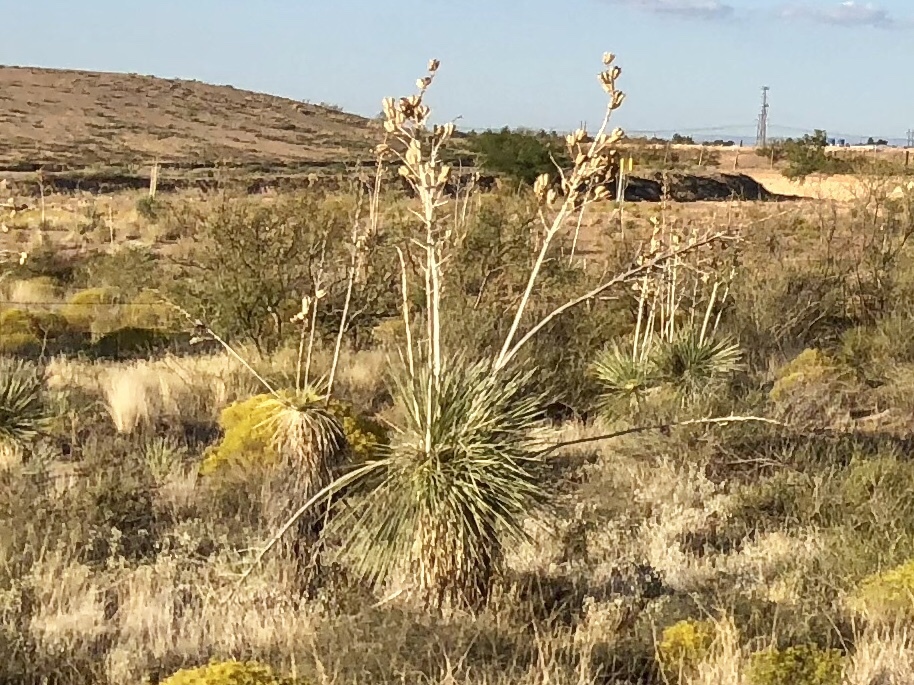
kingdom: Plantae
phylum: Tracheophyta
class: Liliopsida
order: Asparagales
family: Asparagaceae
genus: Yucca
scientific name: Yucca elata
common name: Palmella
